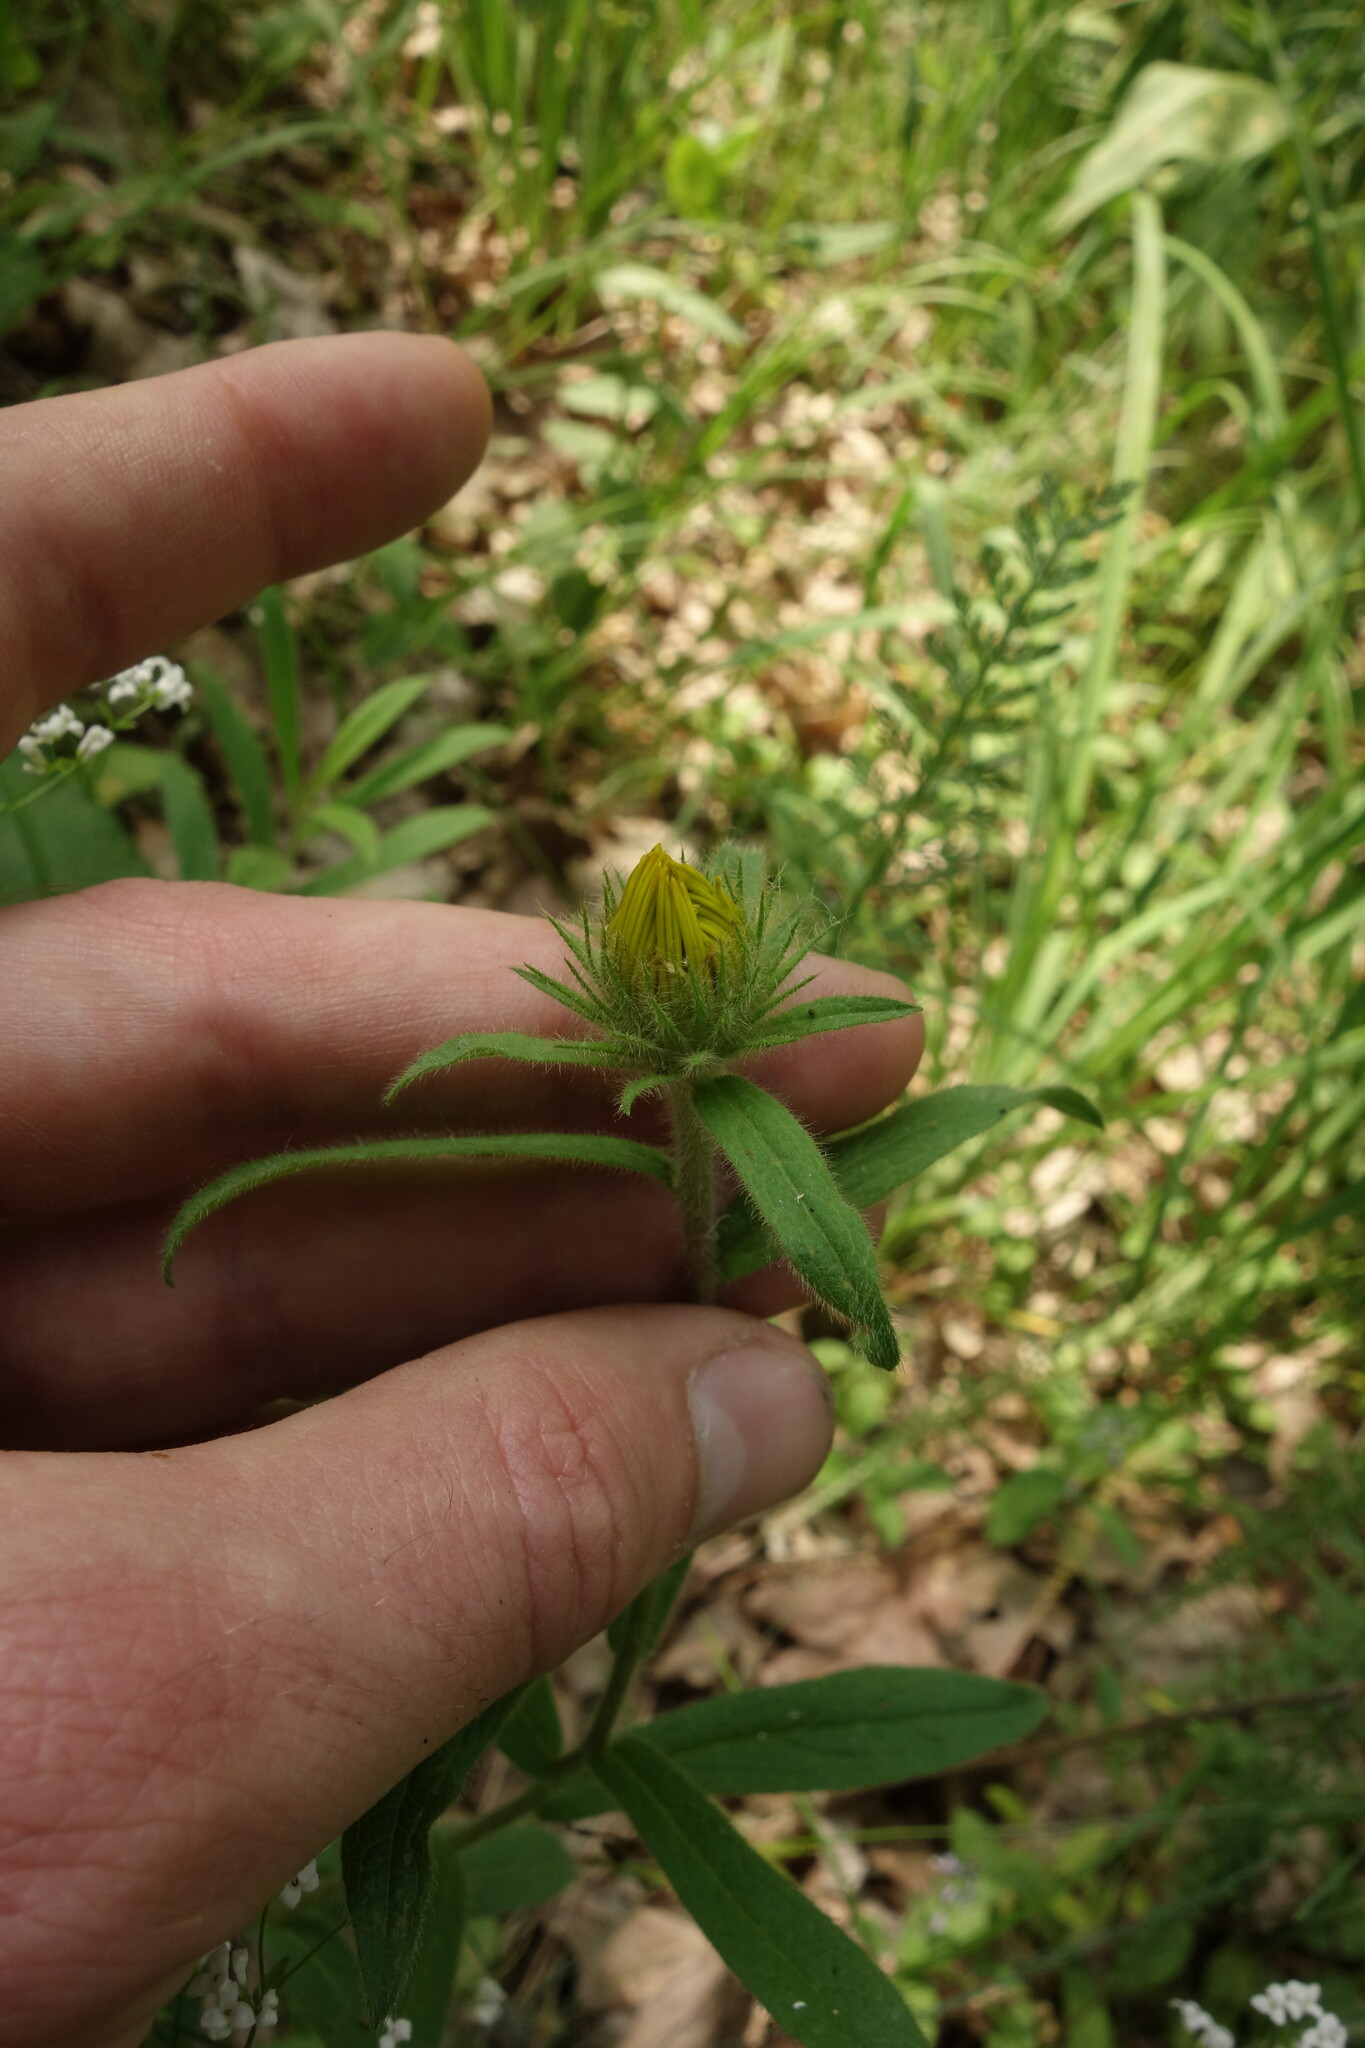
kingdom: Plantae
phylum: Tracheophyta
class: Magnoliopsida
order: Asterales
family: Asteraceae
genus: Pentanema
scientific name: Pentanema hirtum
